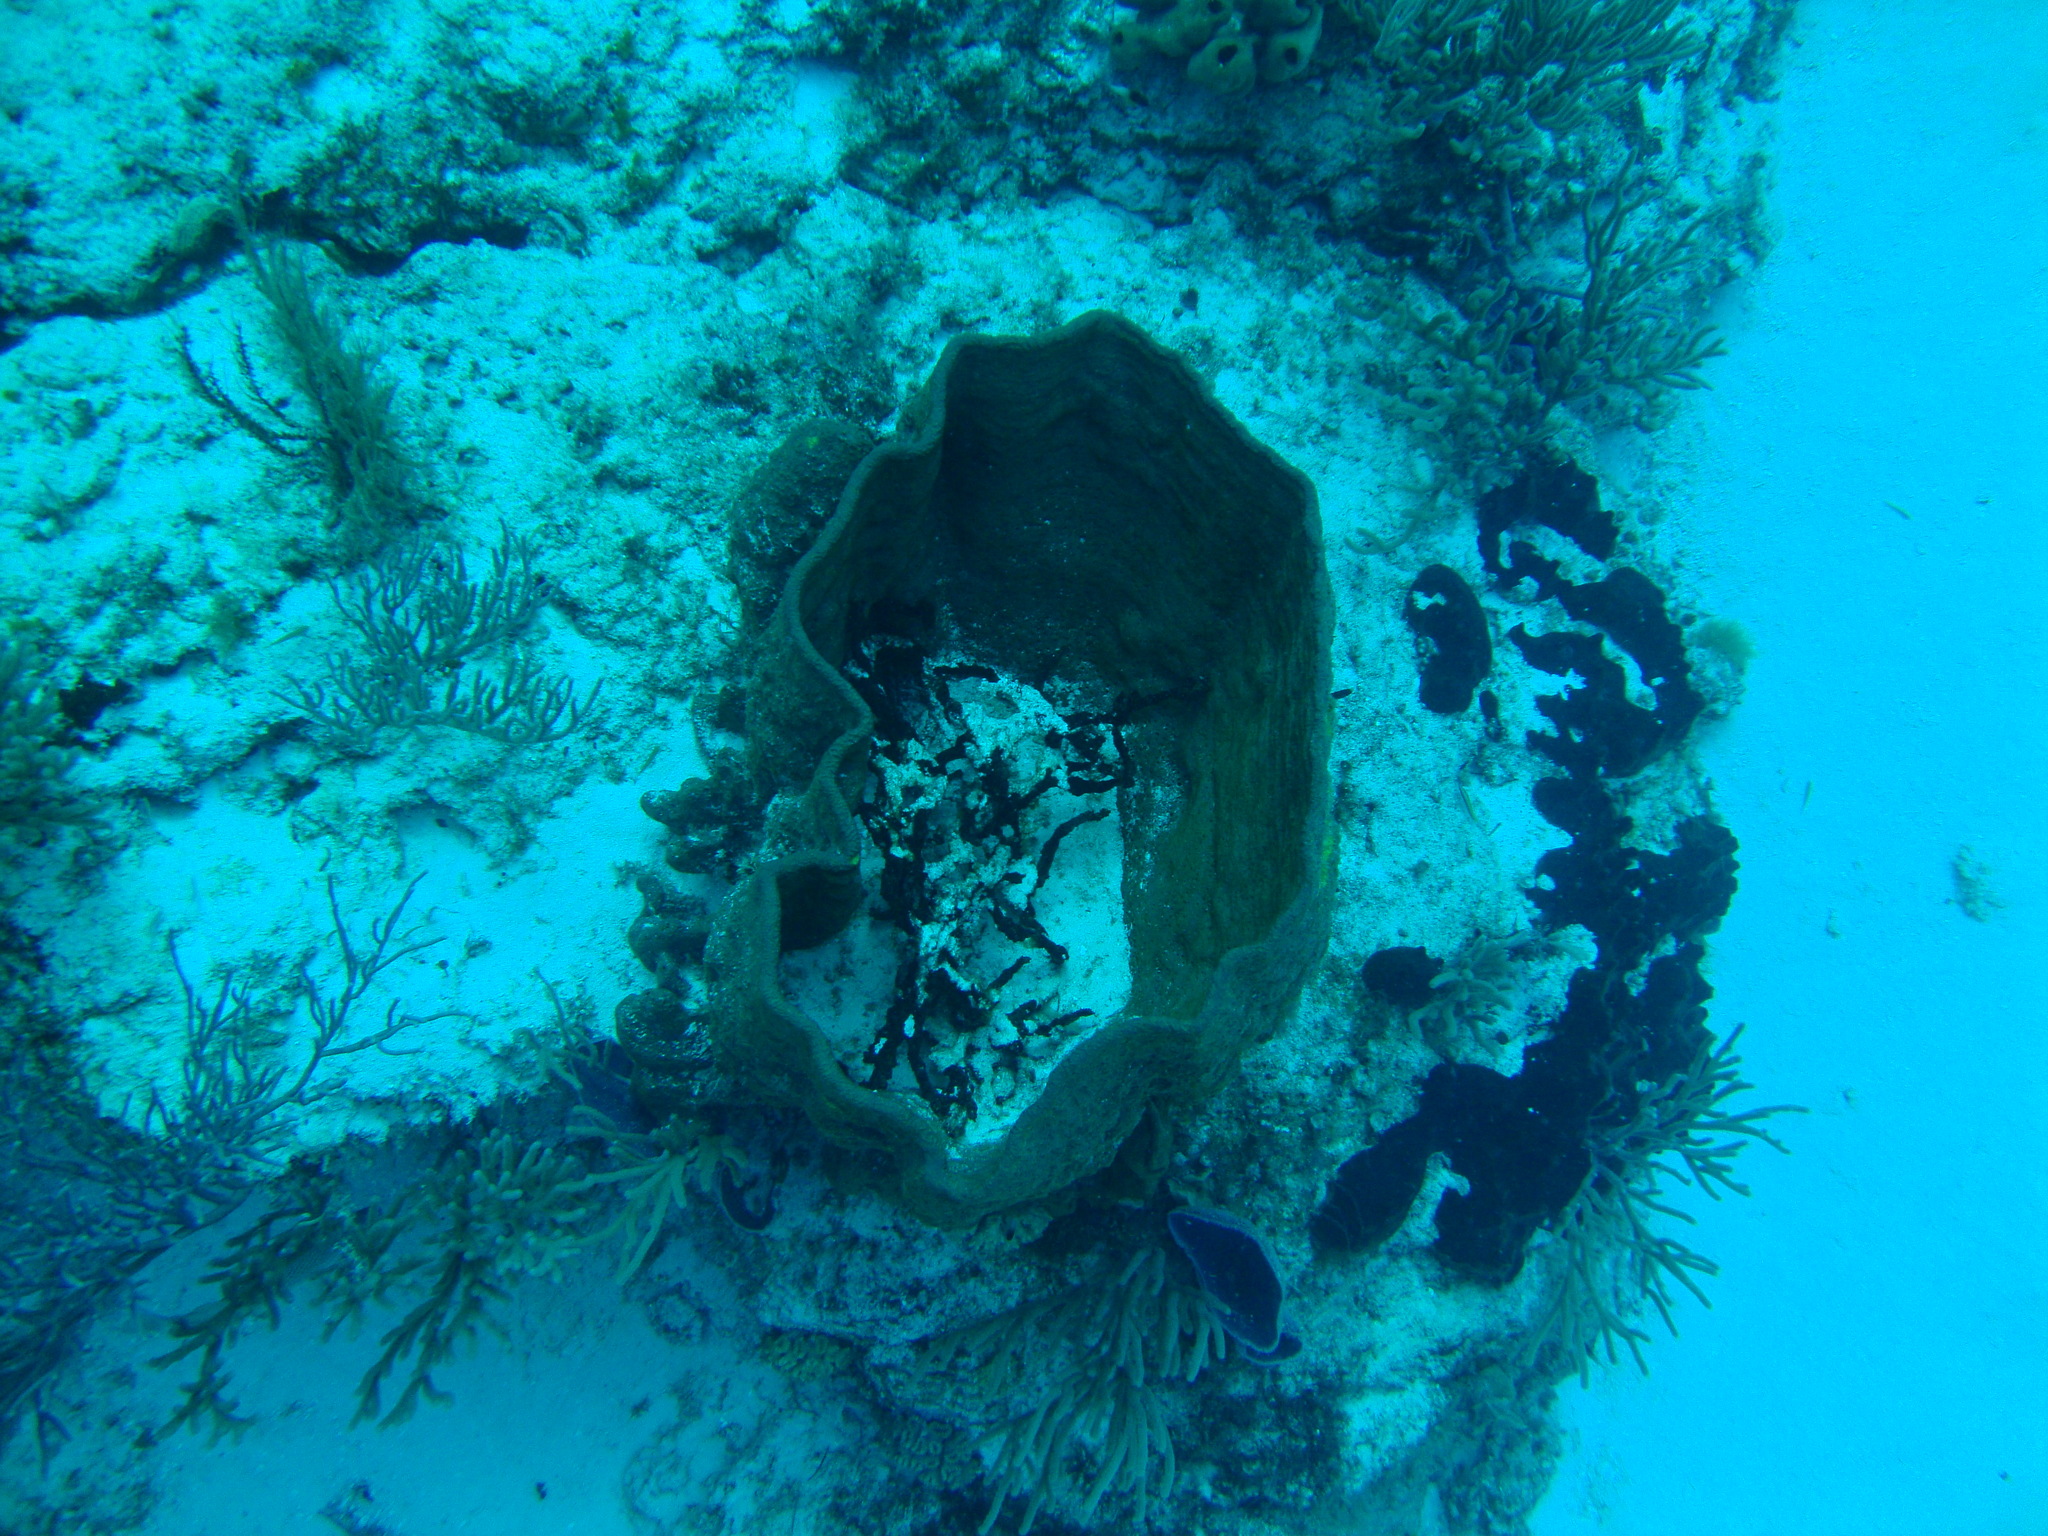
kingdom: Animalia
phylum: Porifera
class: Demospongiae
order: Verongiida
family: Aplysinidae
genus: Verongula
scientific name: Verongula gigantea
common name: Netted barrel sponge
